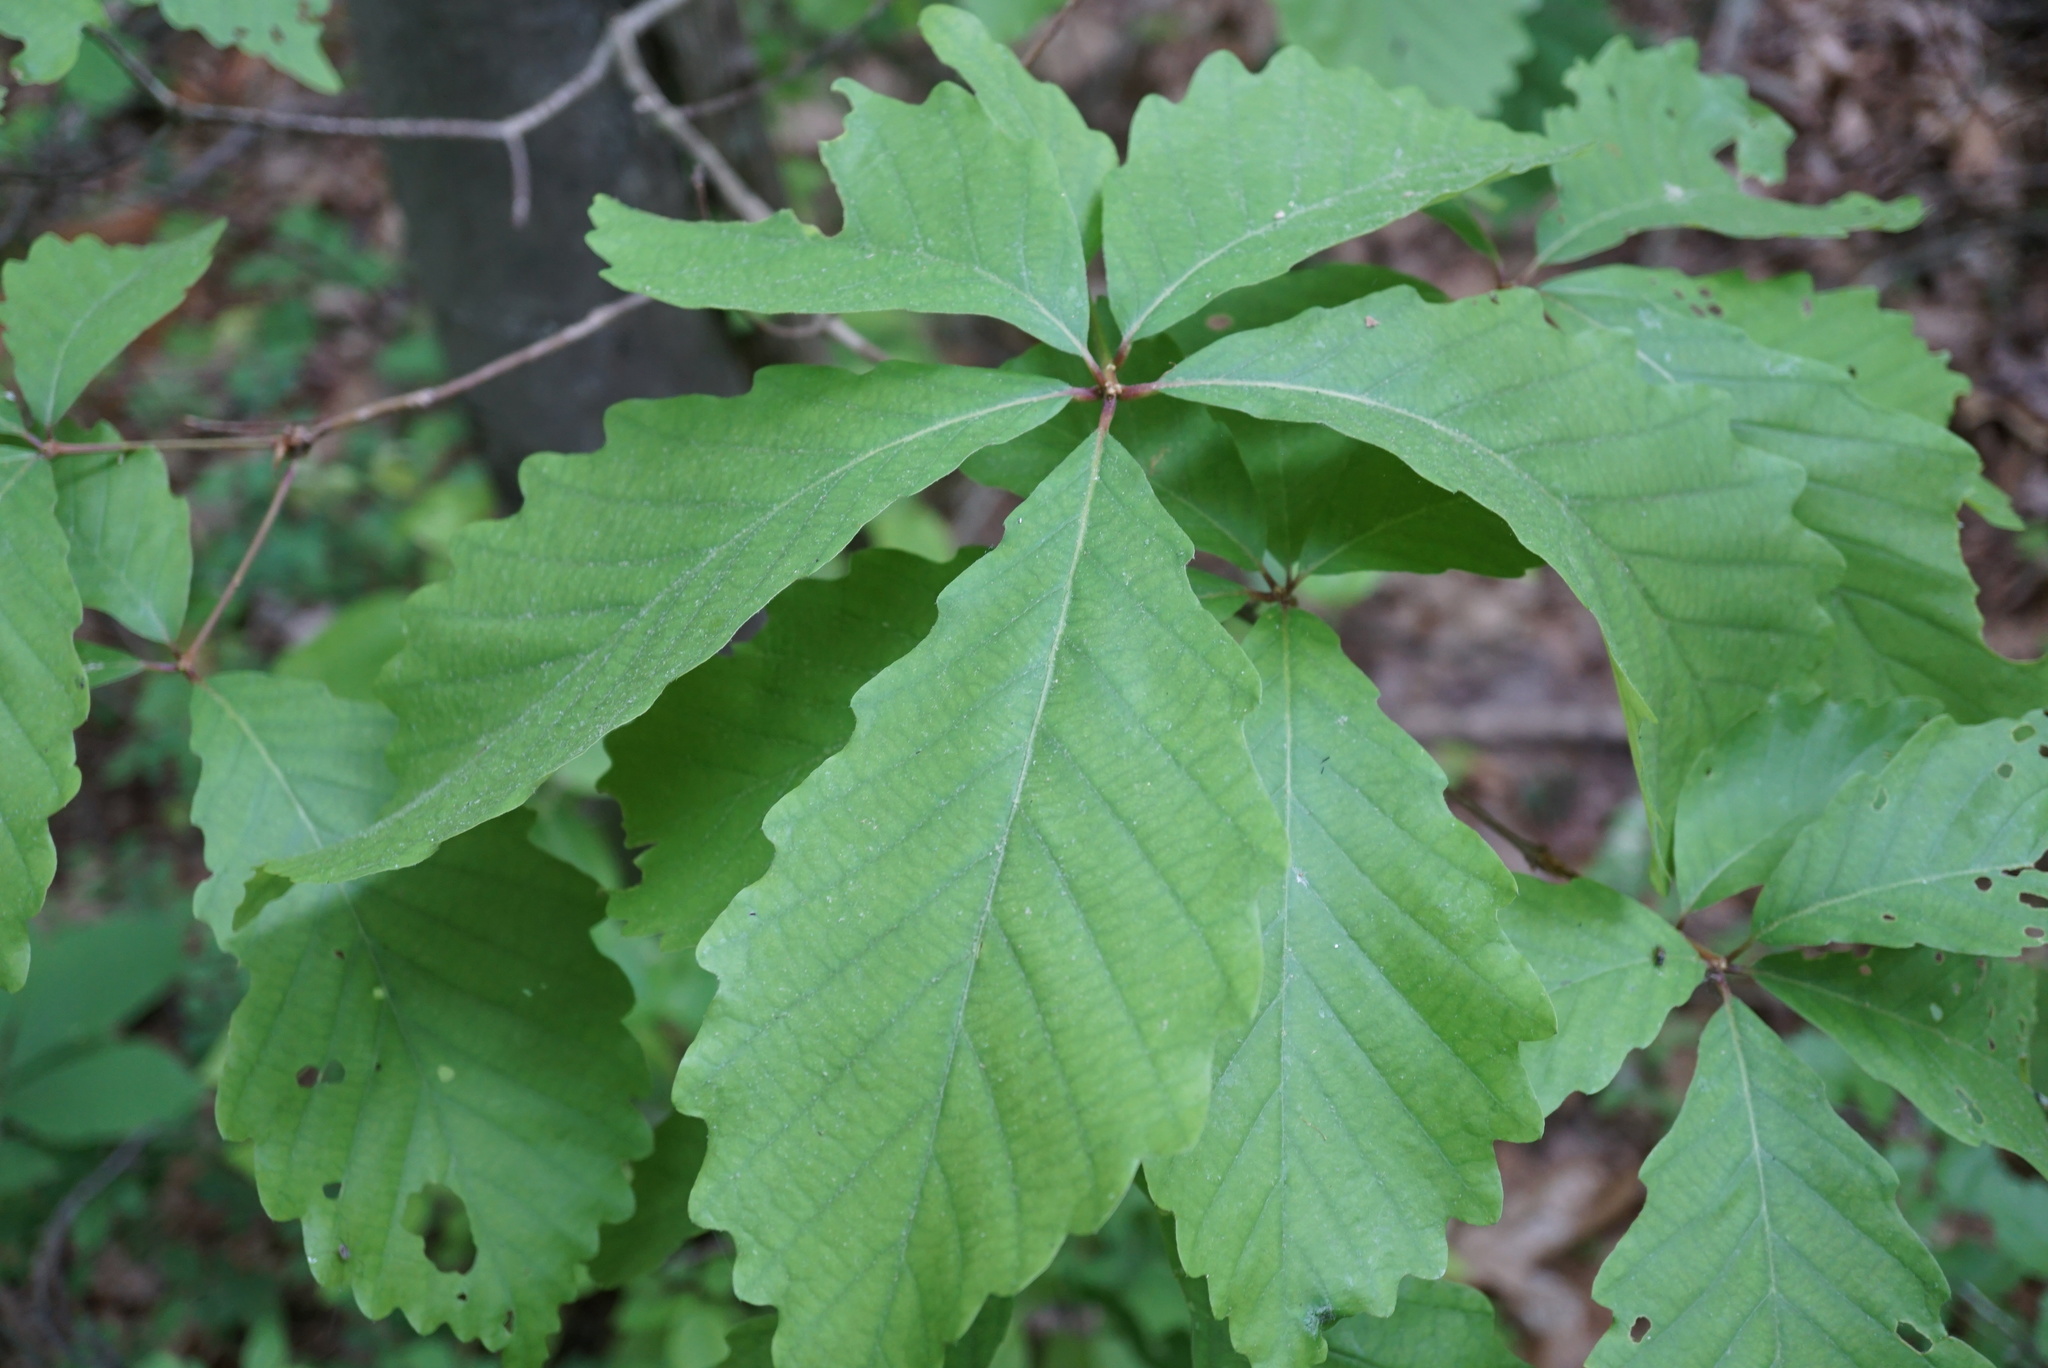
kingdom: Plantae
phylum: Tracheophyta
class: Magnoliopsida
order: Fagales
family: Fagaceae
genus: Quercus
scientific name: Quercus montana
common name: Chestnut oak
